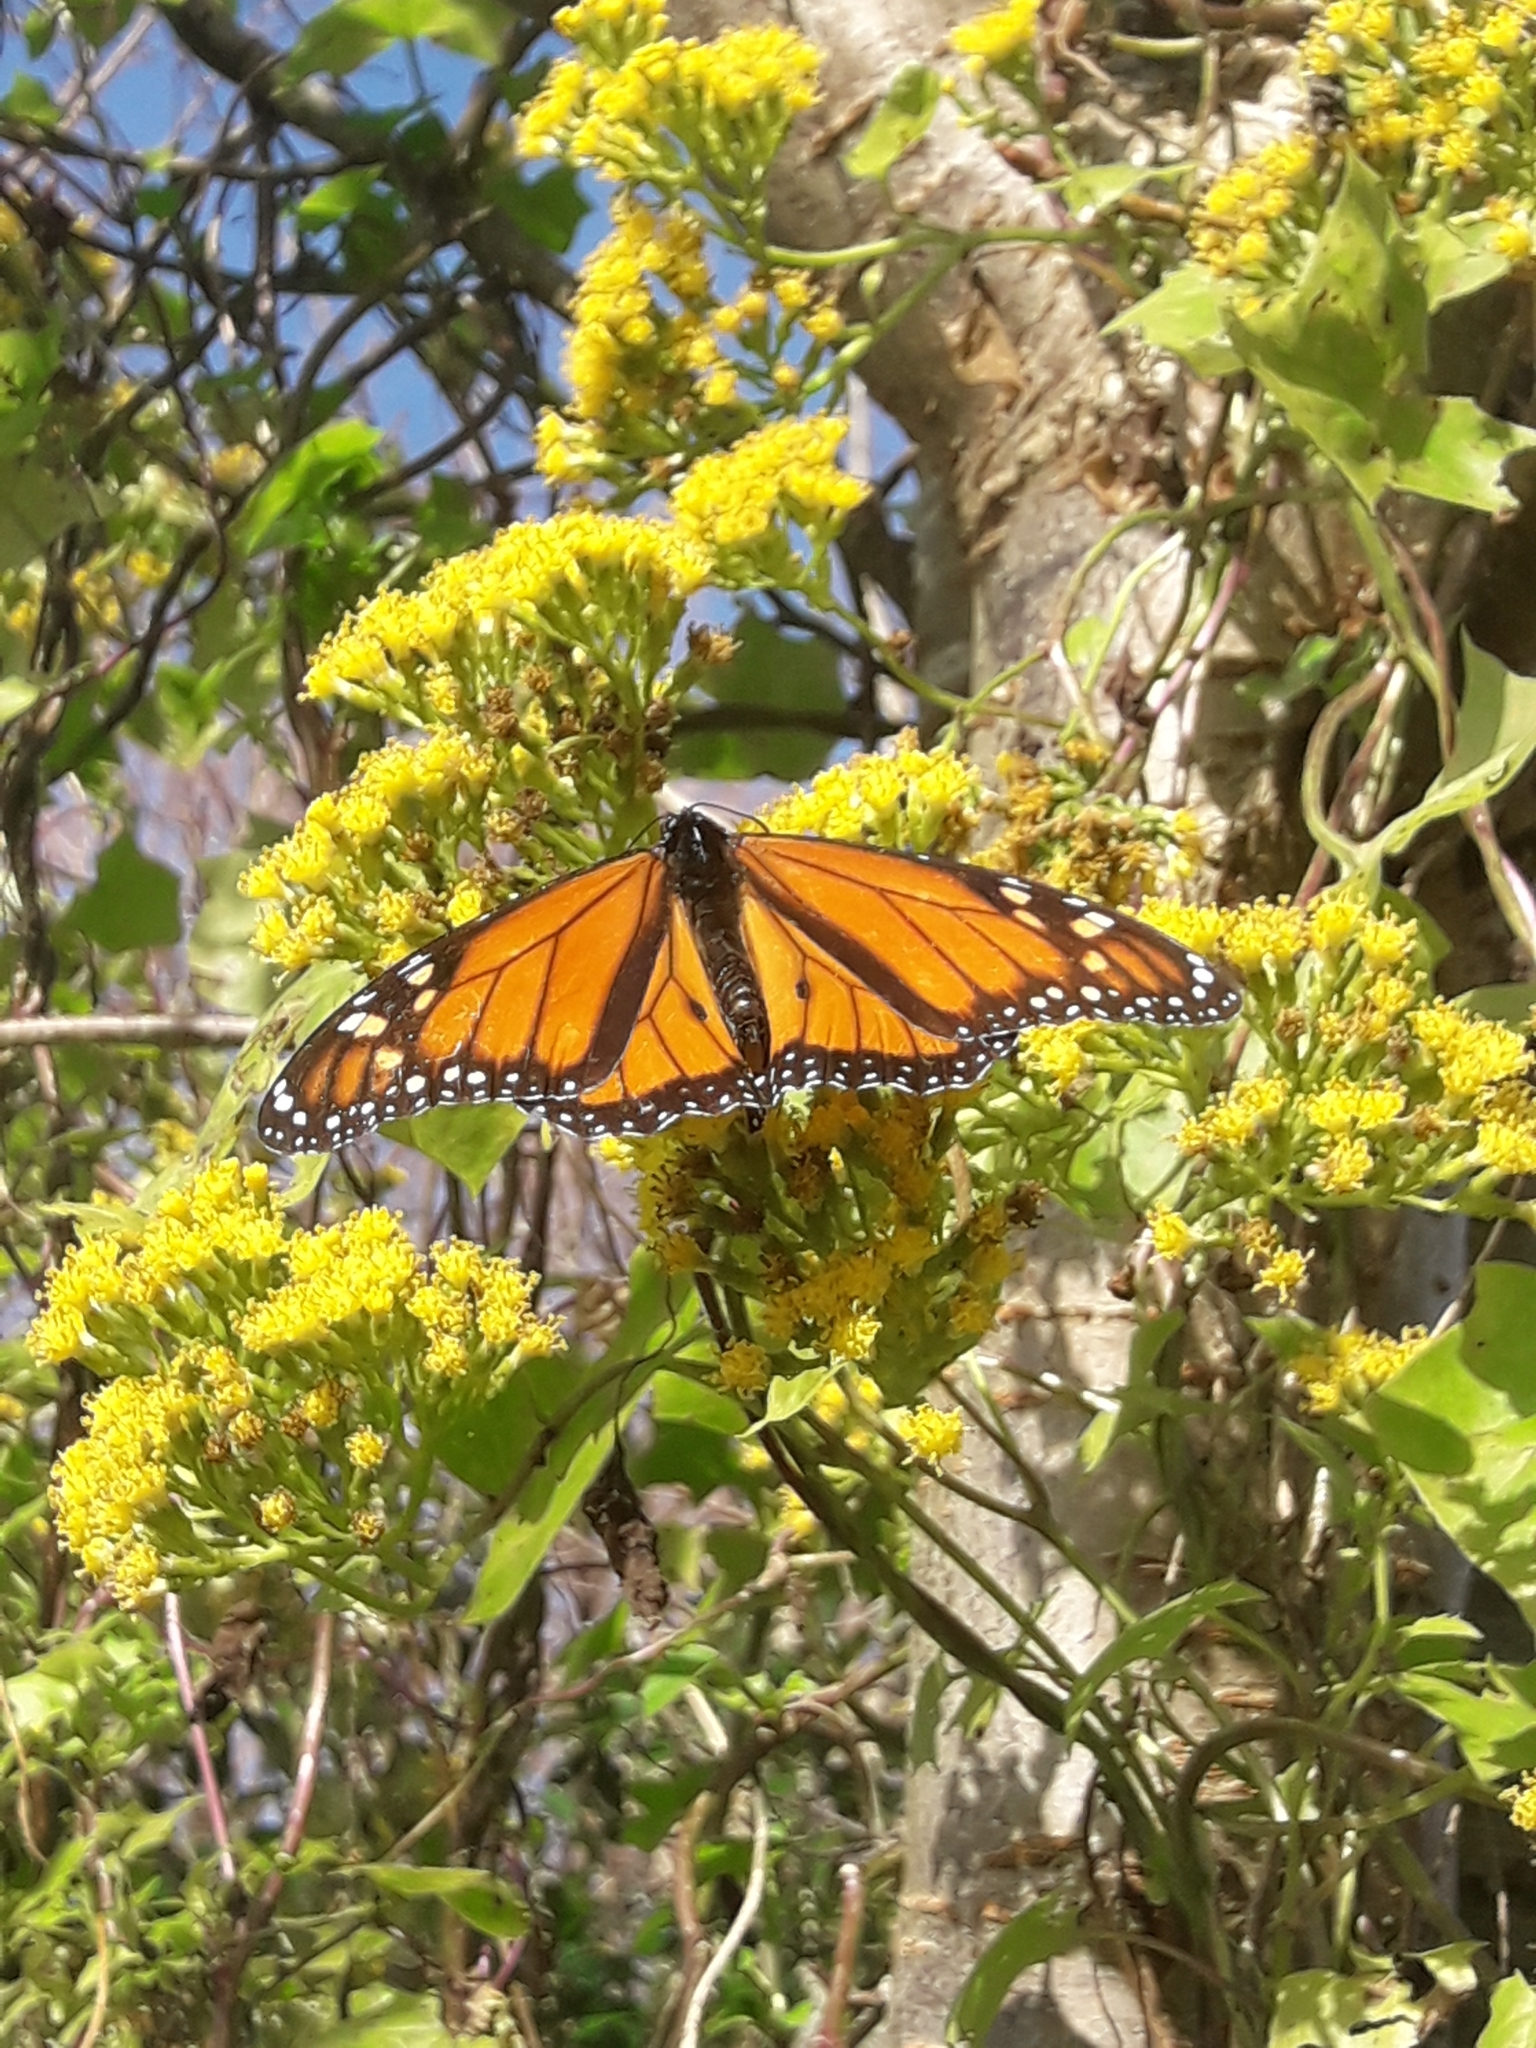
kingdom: Animalia
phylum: Arthropoda
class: Insecta
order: Lepidoptera
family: Nymphalidae
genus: Danaus
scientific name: Danaus plexippus
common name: Monarch
